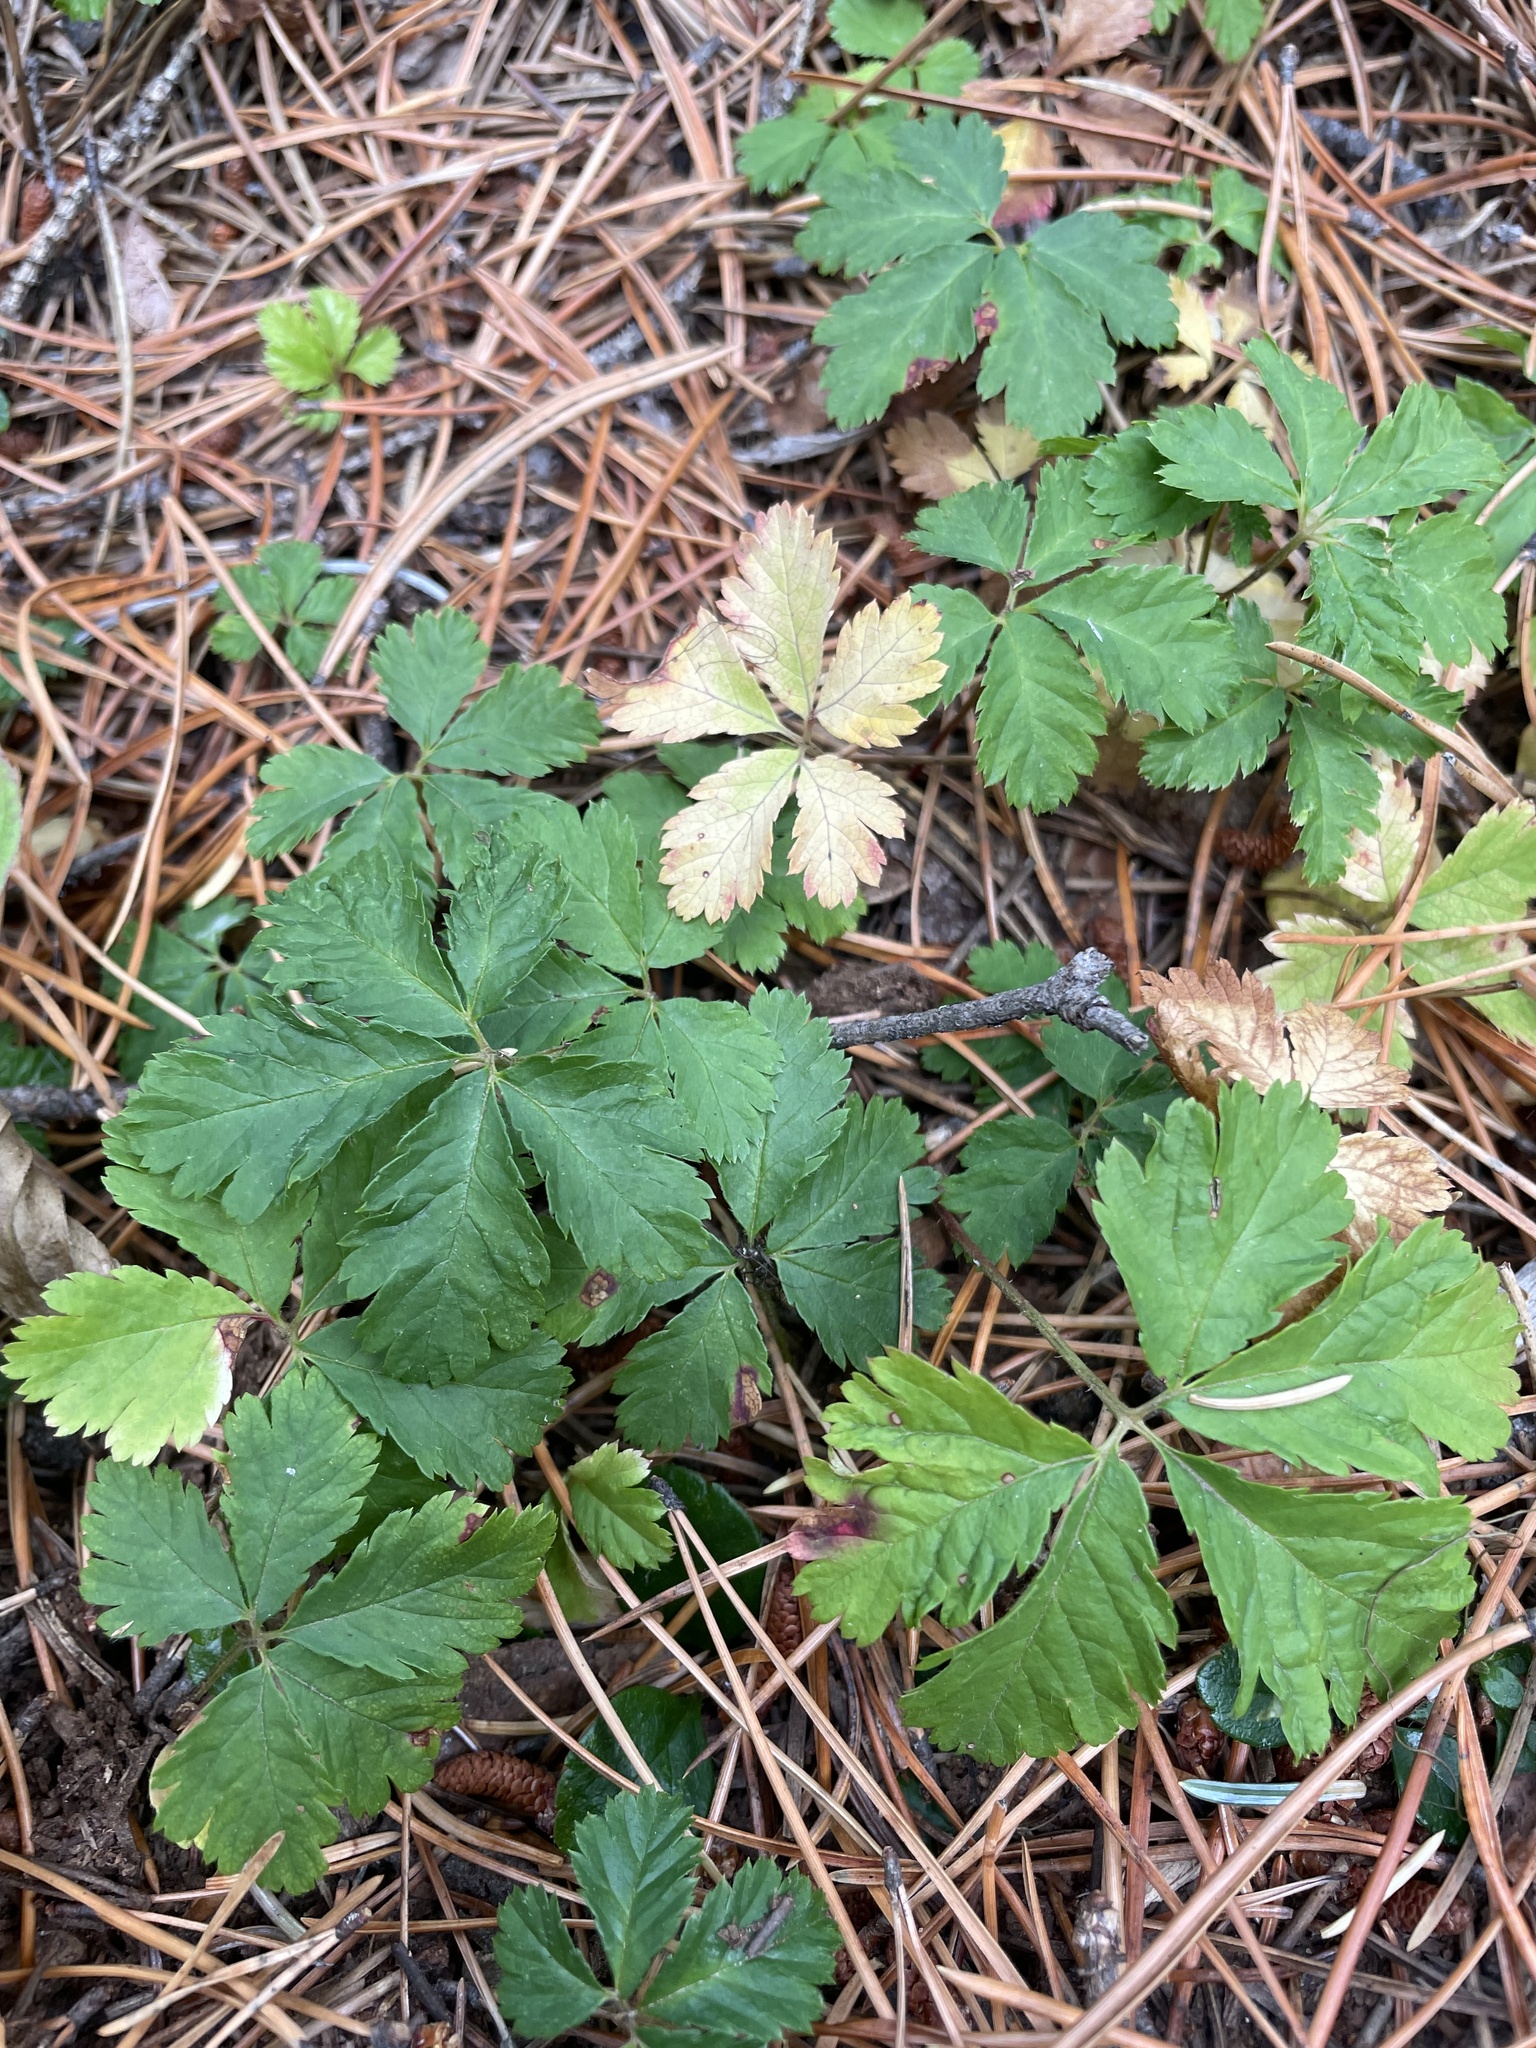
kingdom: Plantae
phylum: Tracheophyta
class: Magnoliopsida
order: Rosales
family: Rosaceae
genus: Rubus
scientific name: Rubus pedatus
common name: Creeping raspberry
